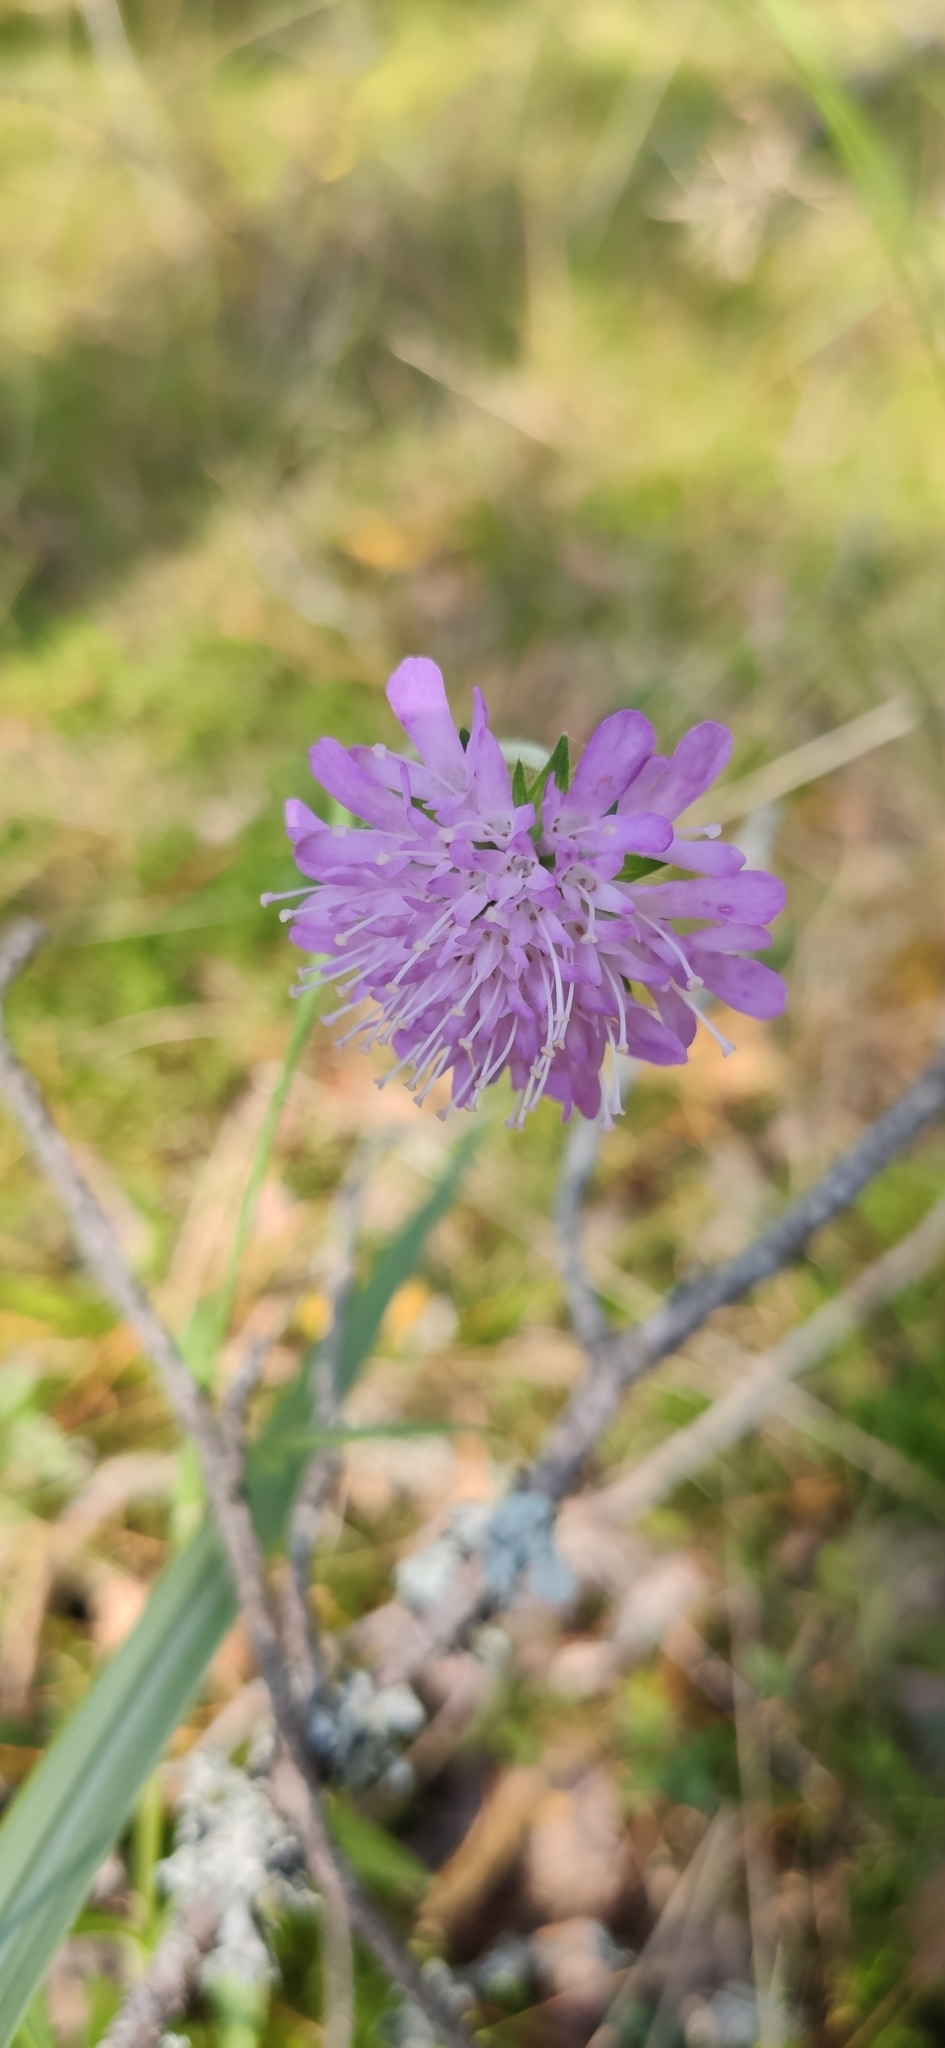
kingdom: Plantae
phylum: Tracheophyta
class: Magnoliopsida
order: Dipsacales
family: Caprifoliaceae
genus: Knautia
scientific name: Knautia arvensis
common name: Field scabiosa
